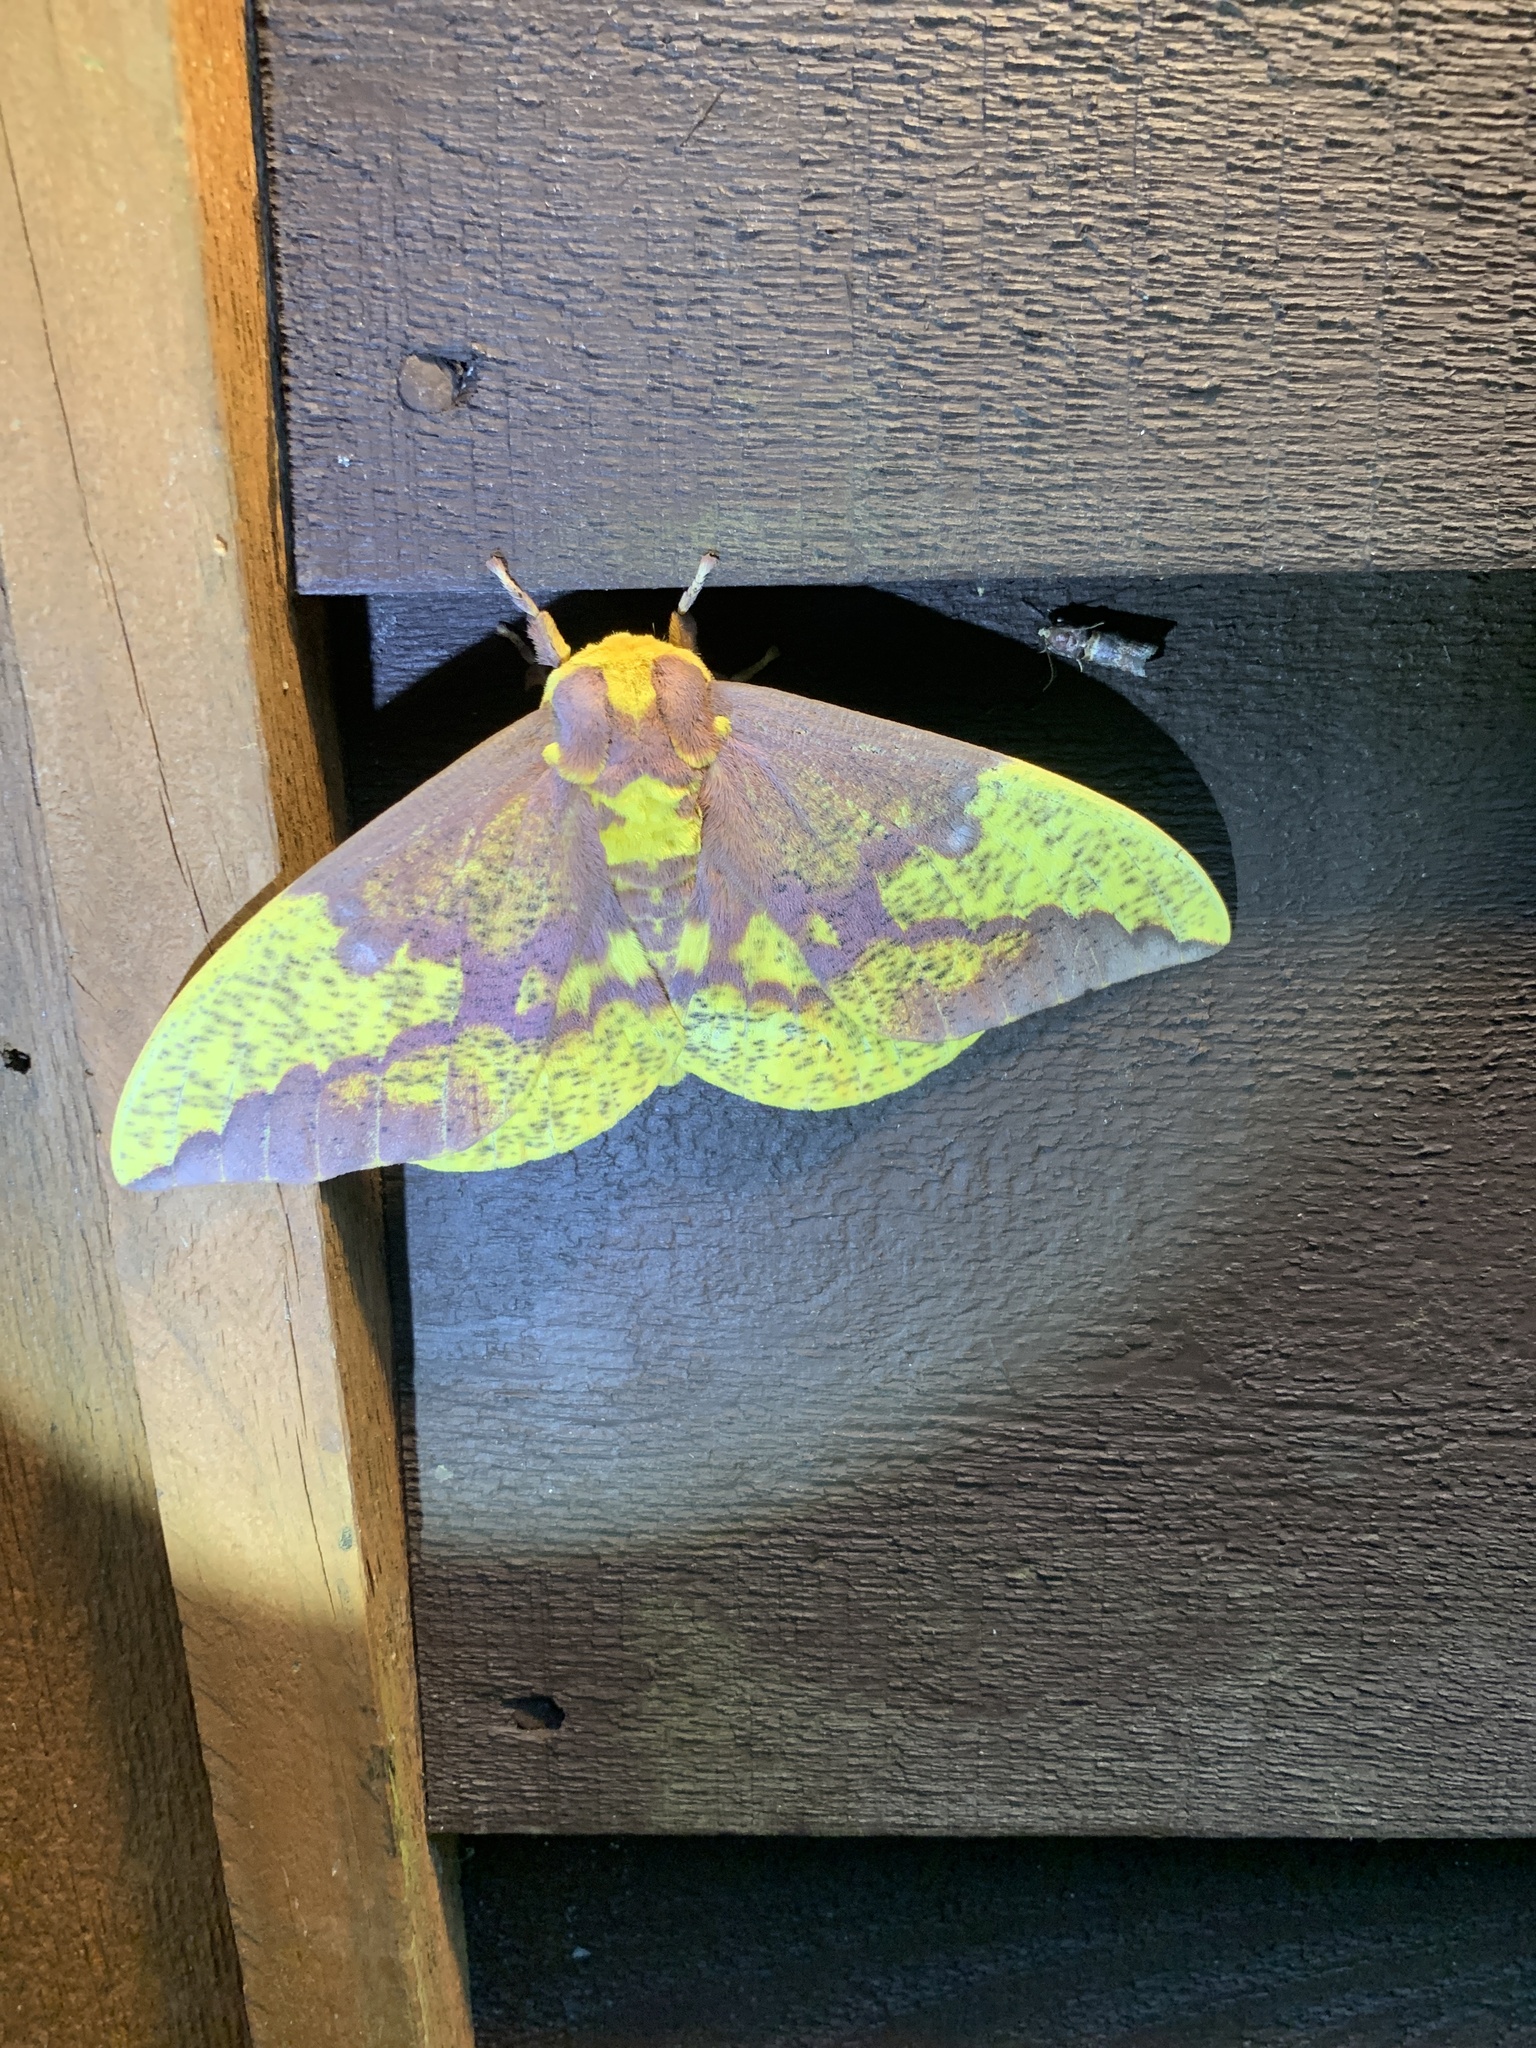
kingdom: Animalia
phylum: Arthropoda
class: Insecta
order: Lepidoptera
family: Saturniidae
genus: Eacles
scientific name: Eacles imperialis
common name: Imperial moth
